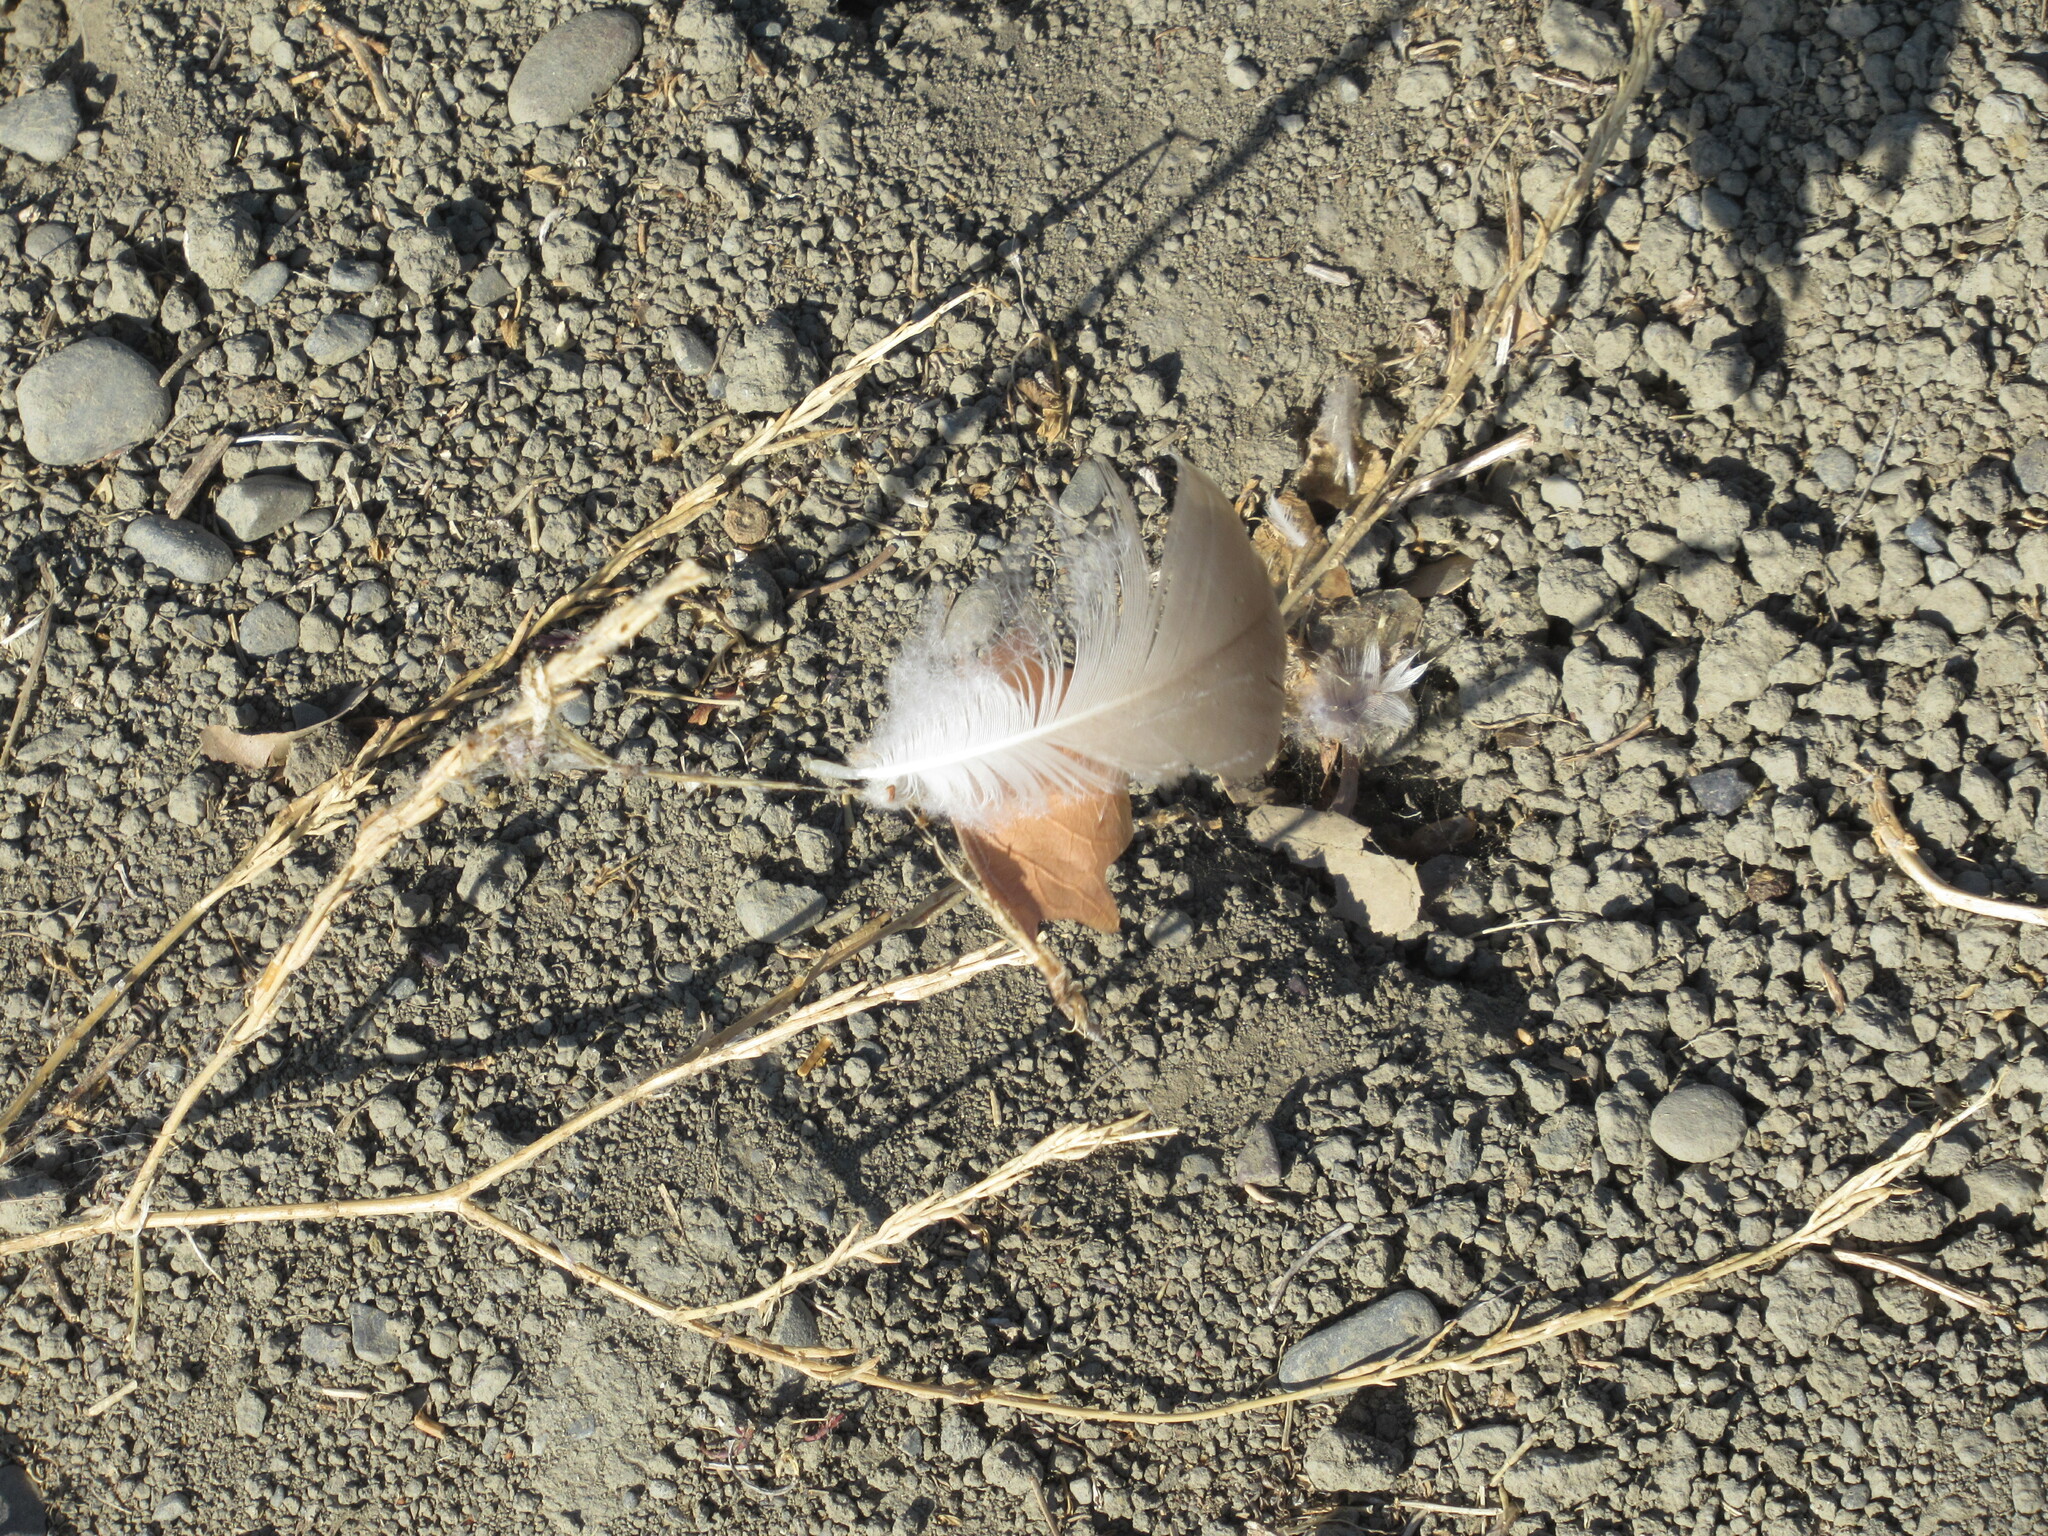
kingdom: Animalia
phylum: Chordata
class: Aves
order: Anseriformes
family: Anatidae
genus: Branta
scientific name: Branta canadensis
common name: Canada goose
